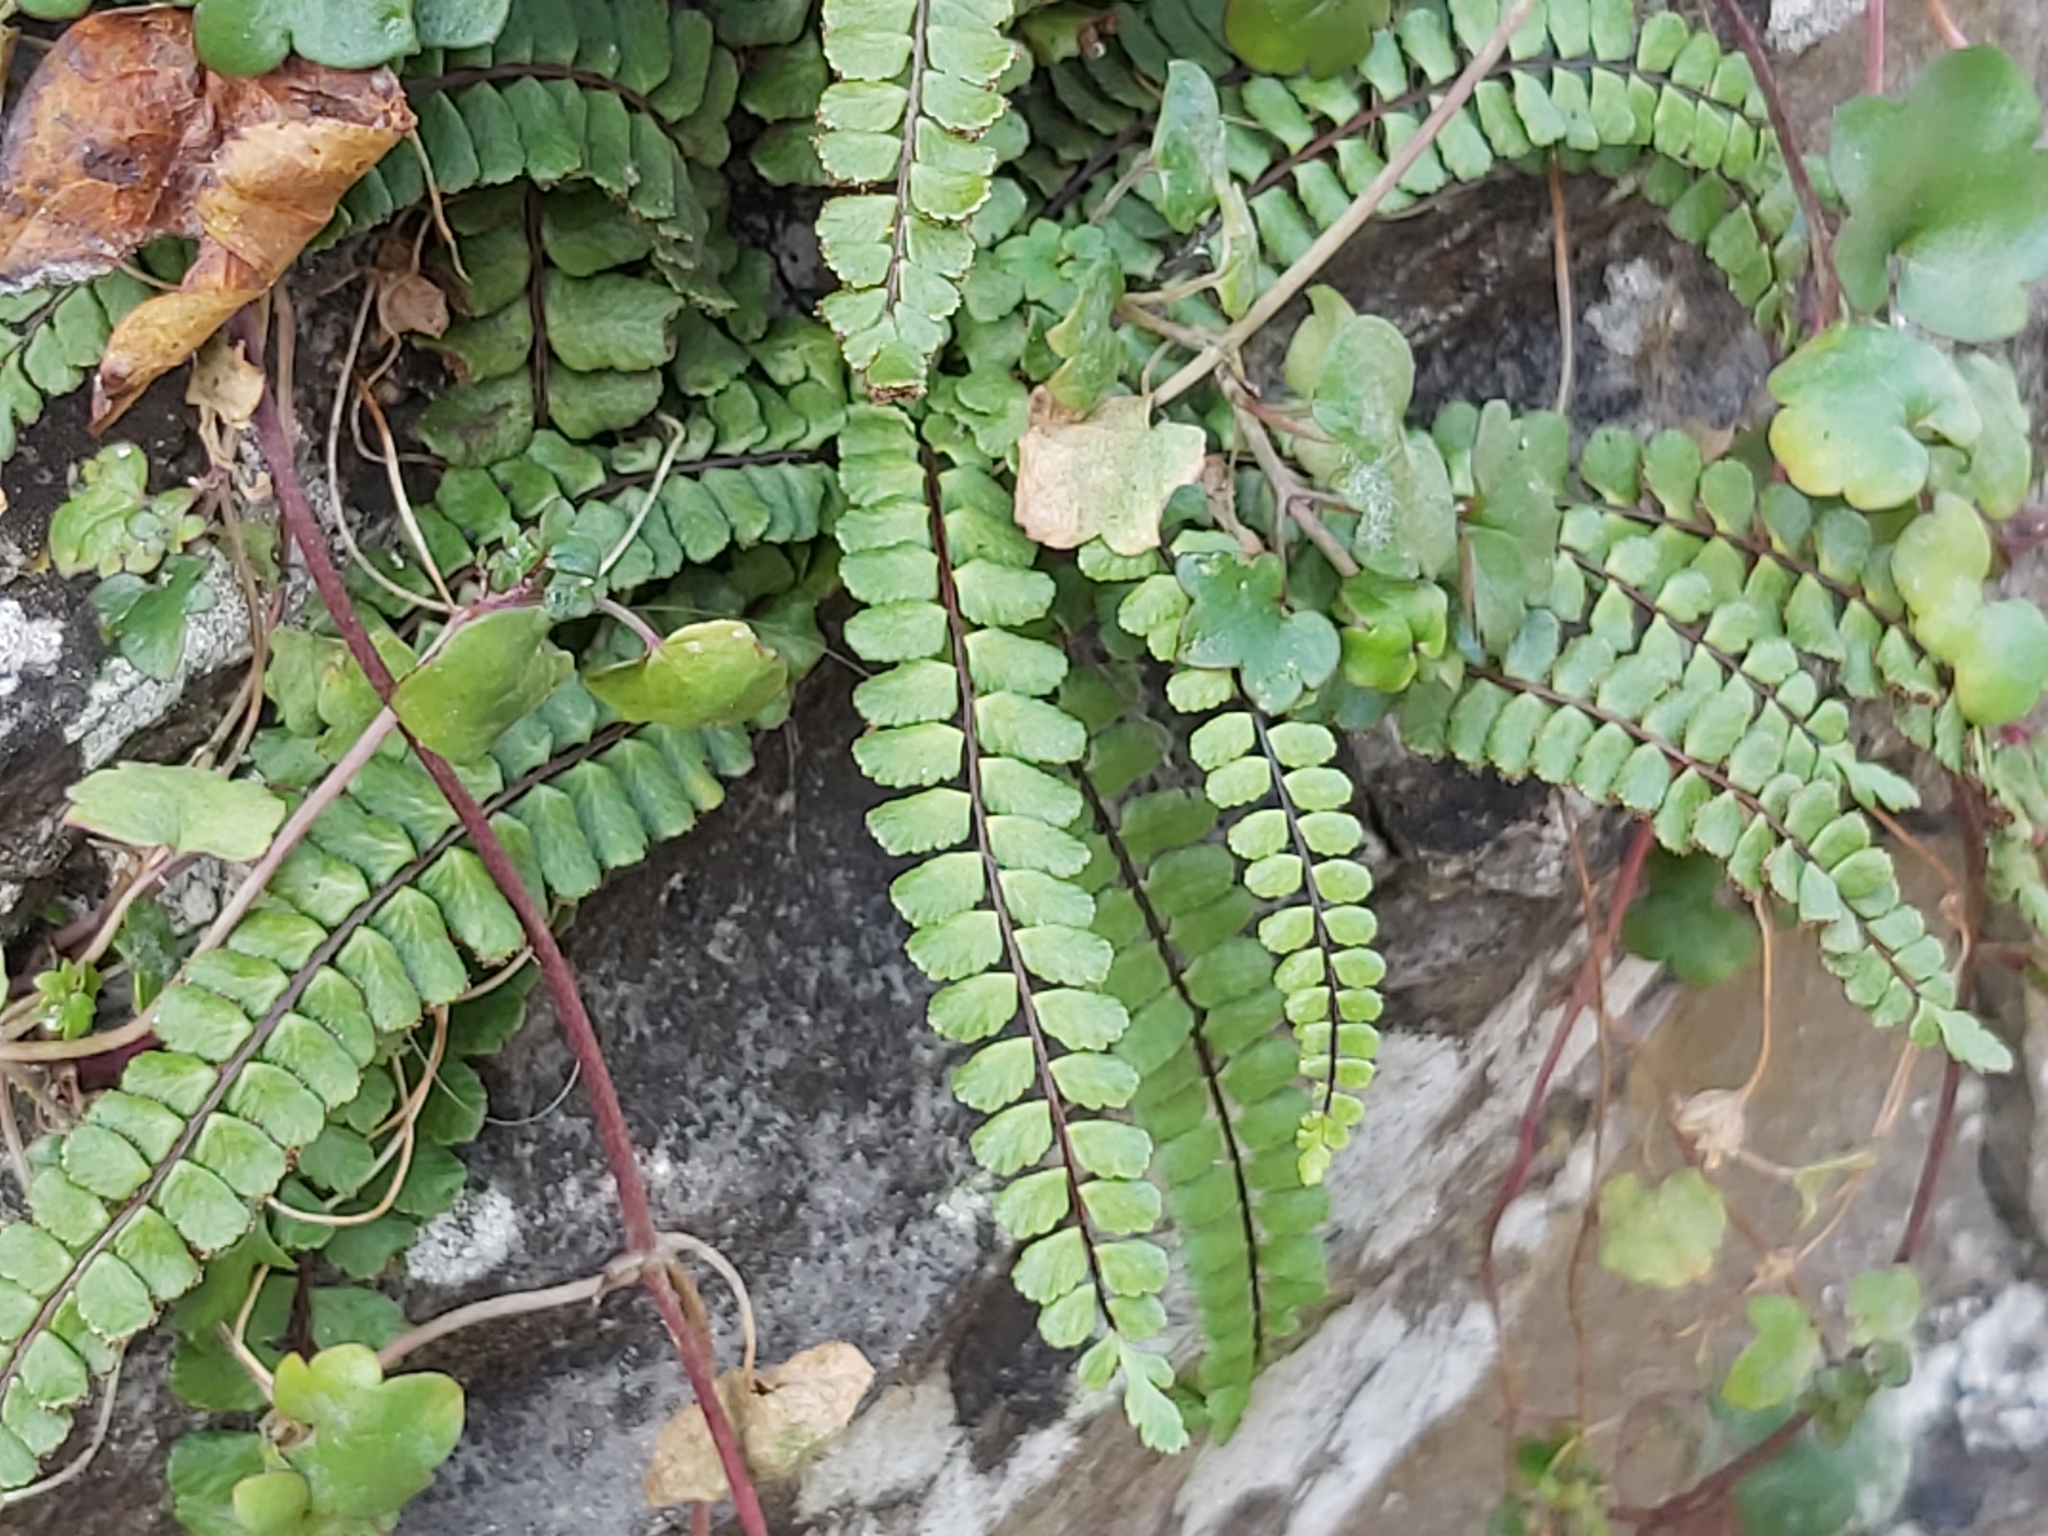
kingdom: Plantae
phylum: Tracheophyta
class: Polypodiopsida
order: Polypodiales
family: Aspleniaceae
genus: Asplenium
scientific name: Asplenium trichomanes
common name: Maidenhair spleenwort
